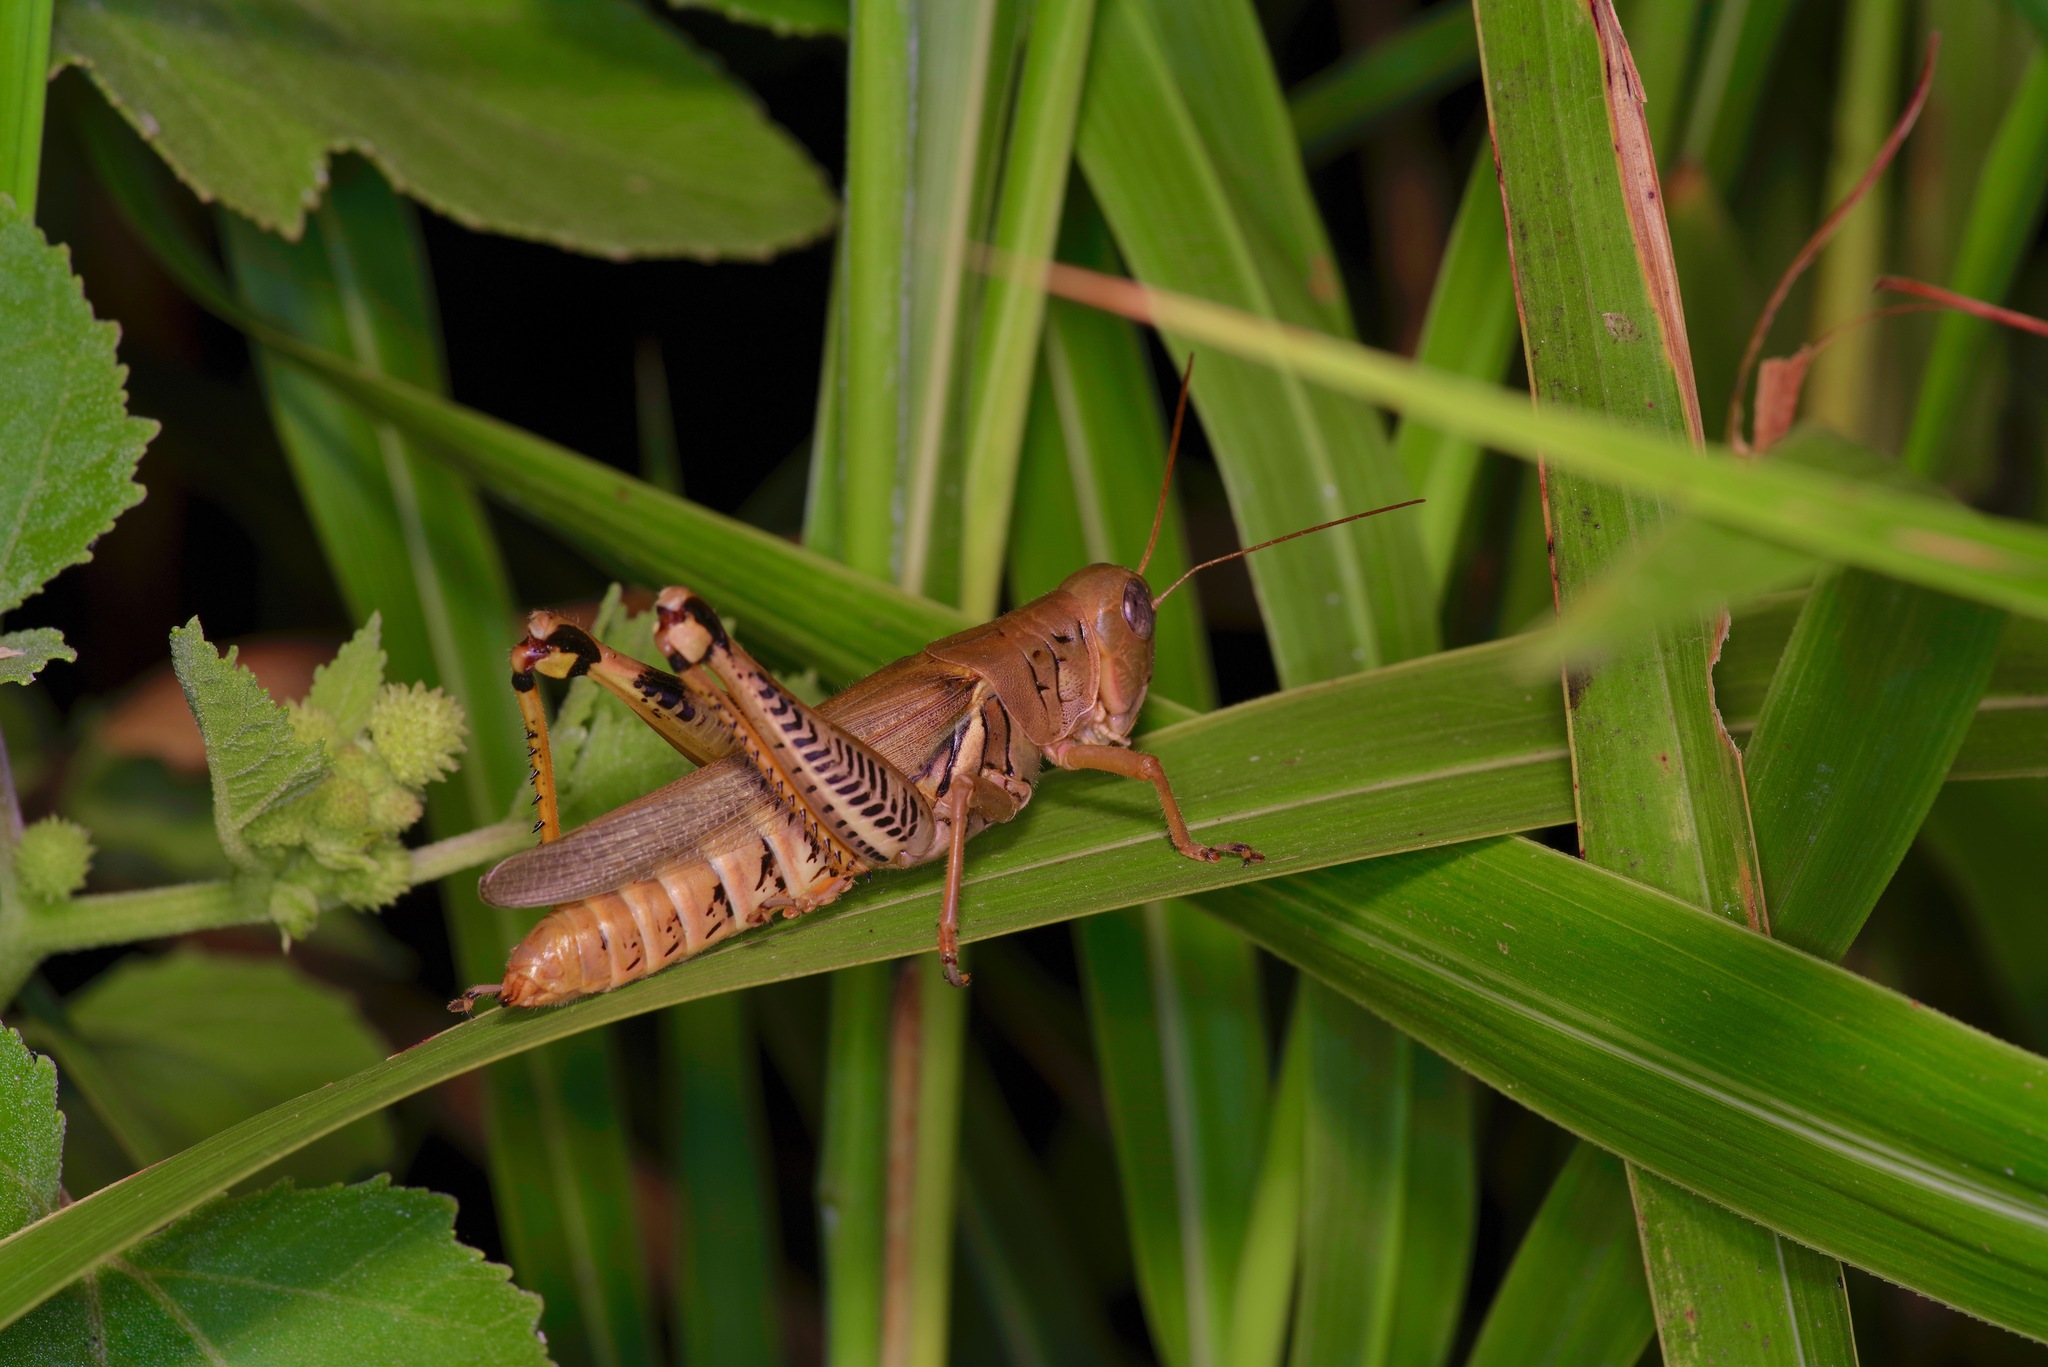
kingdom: Animalia
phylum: Arthropoda
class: Insecta
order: Orthoptera
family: Acrididae
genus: Melanoplus
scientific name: Melanoplus differentialis
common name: Differential grasshopper
